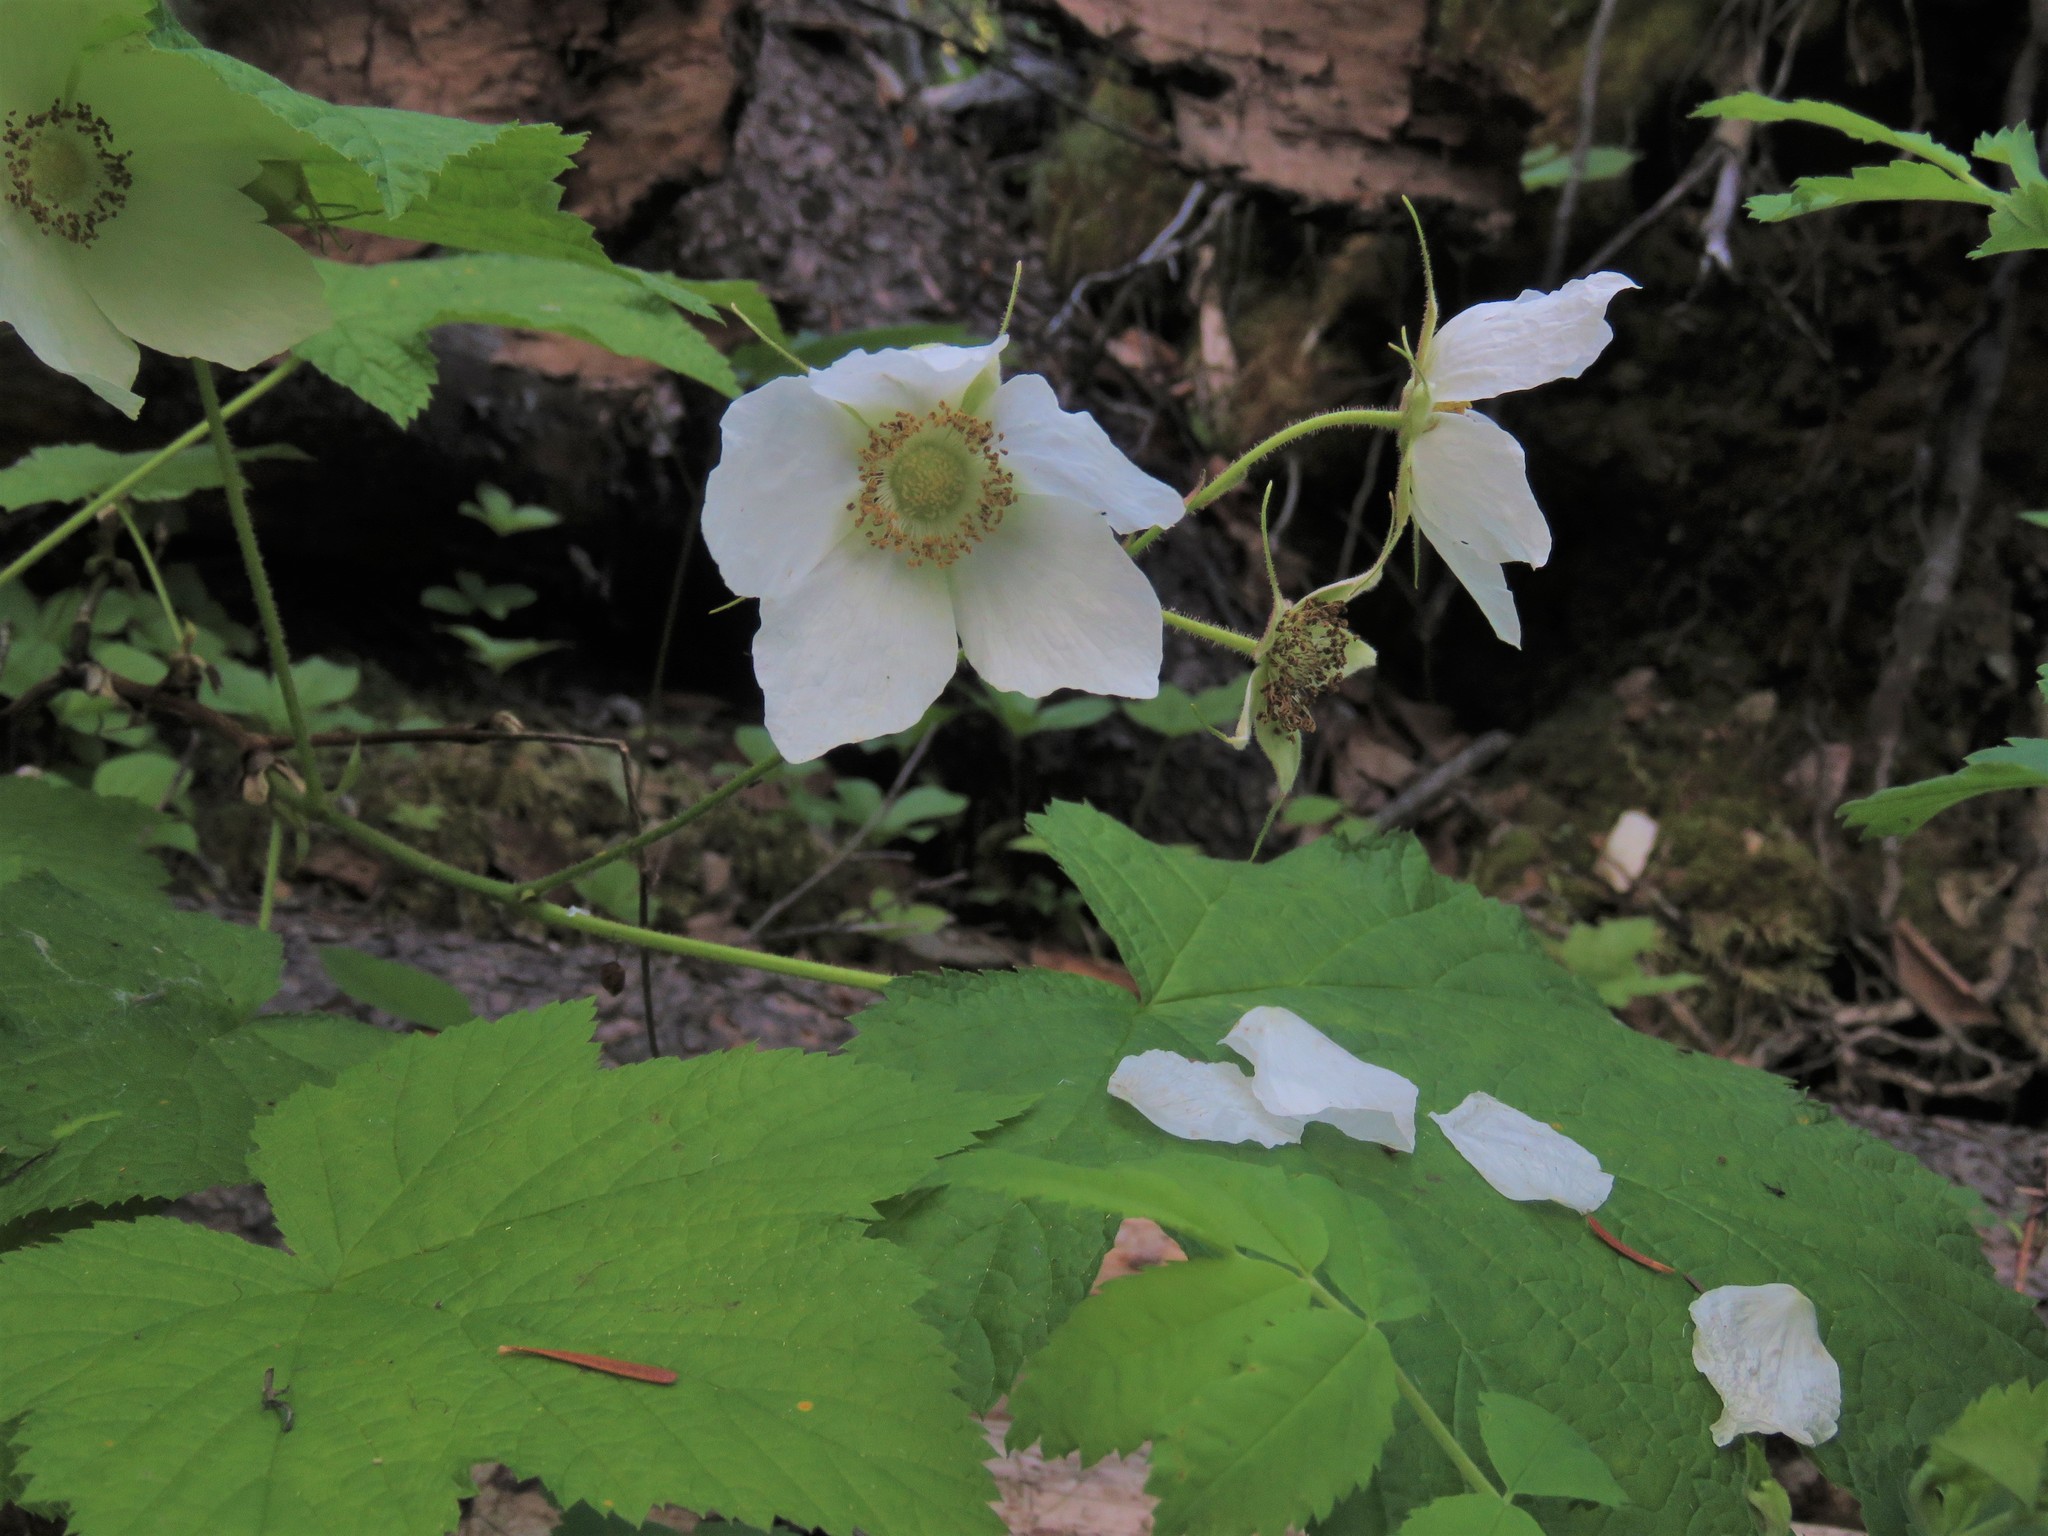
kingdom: Plantae
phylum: Tracheophyta
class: Magnoliopsida
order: Rosales
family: Rosaceae
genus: Rubus
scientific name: Rubus parviflorus
